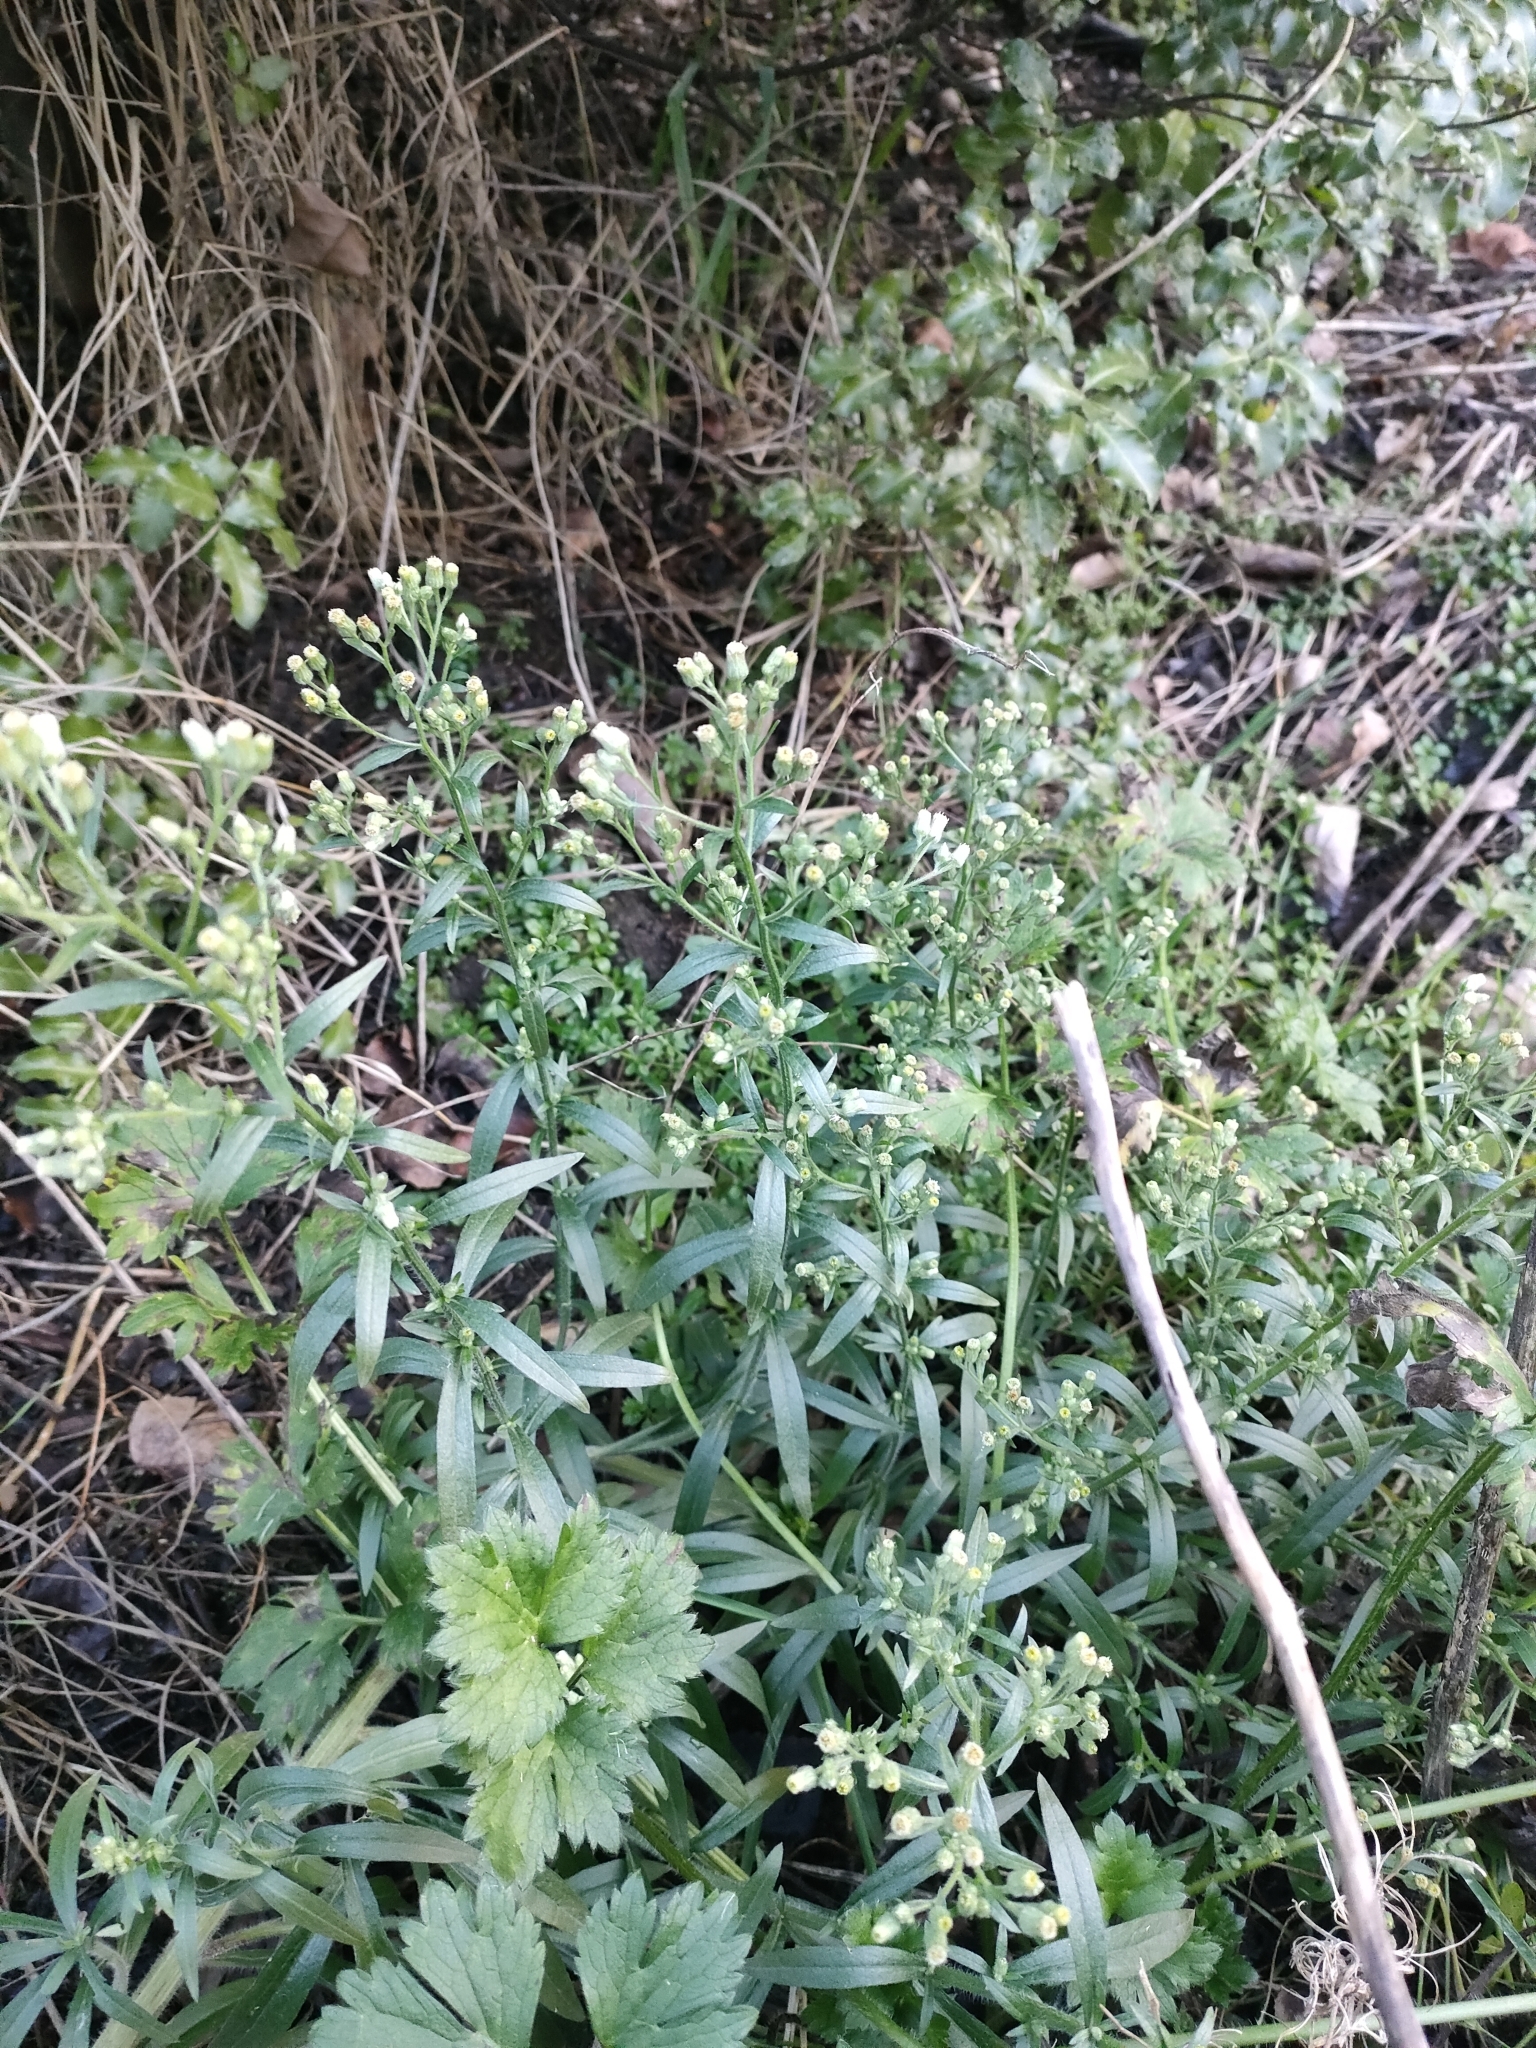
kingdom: Plantae
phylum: Tracheophyta
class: Magnoliopsida
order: Asterales
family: Asteraceae
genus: Erigeron
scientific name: Erigeron sumatrensis
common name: Daisy
